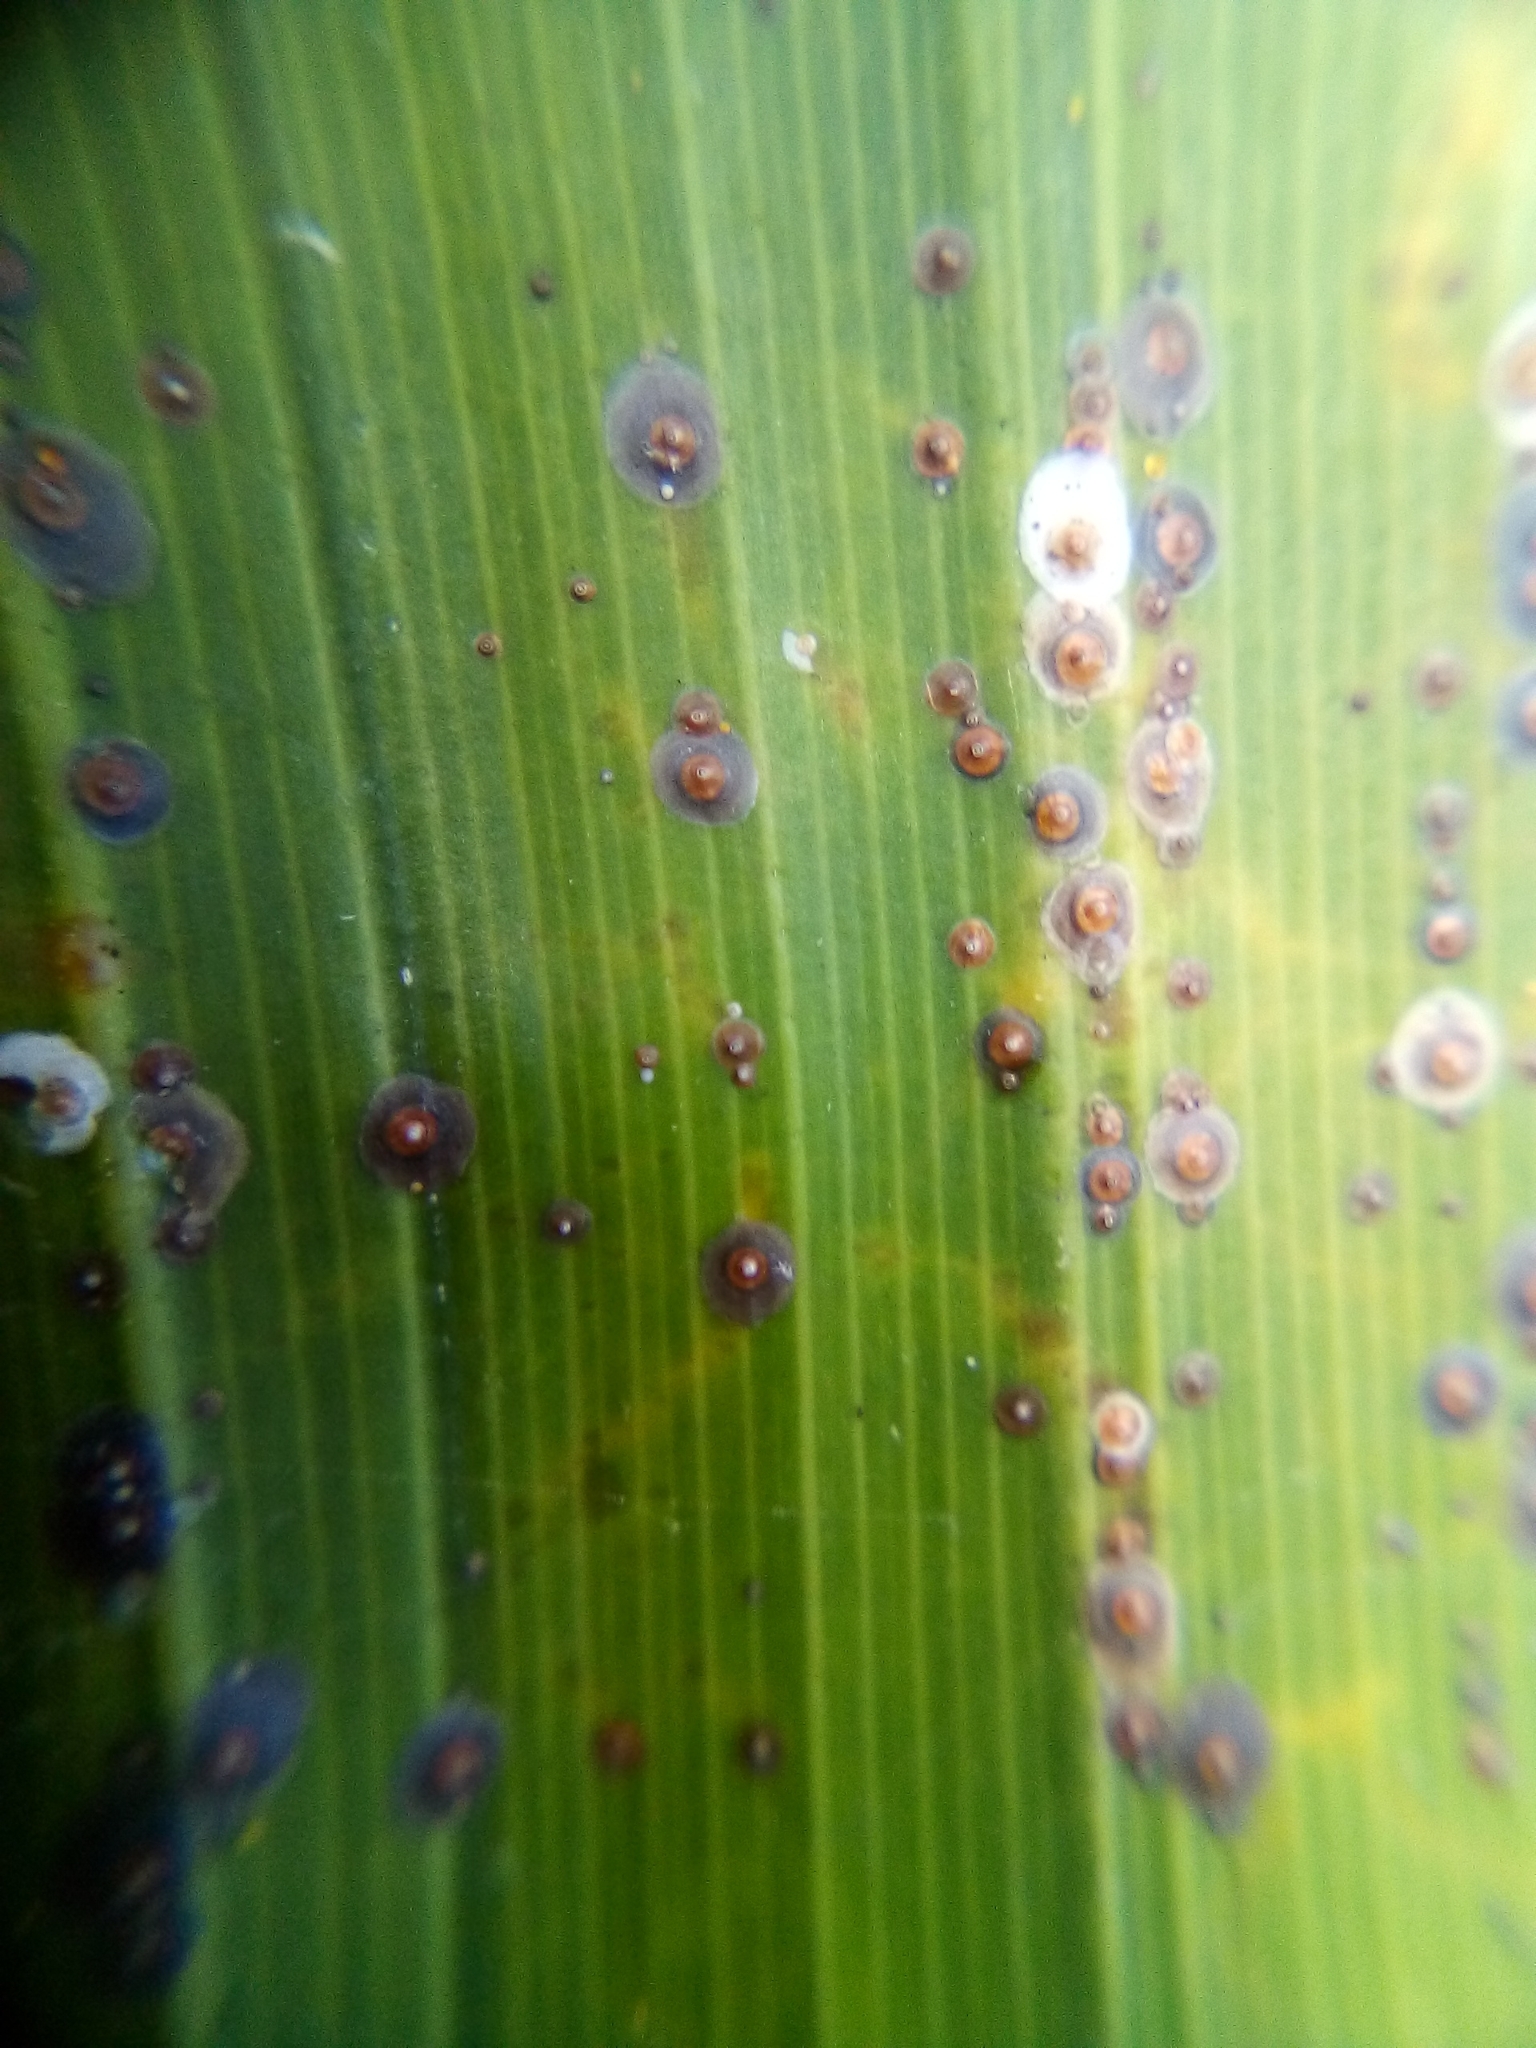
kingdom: Animalia
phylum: Arthropoda
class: Insecta
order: Hemiptera
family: Diaspididae
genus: Chrysomphalus
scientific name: Chrysomphalus pinnulifer
